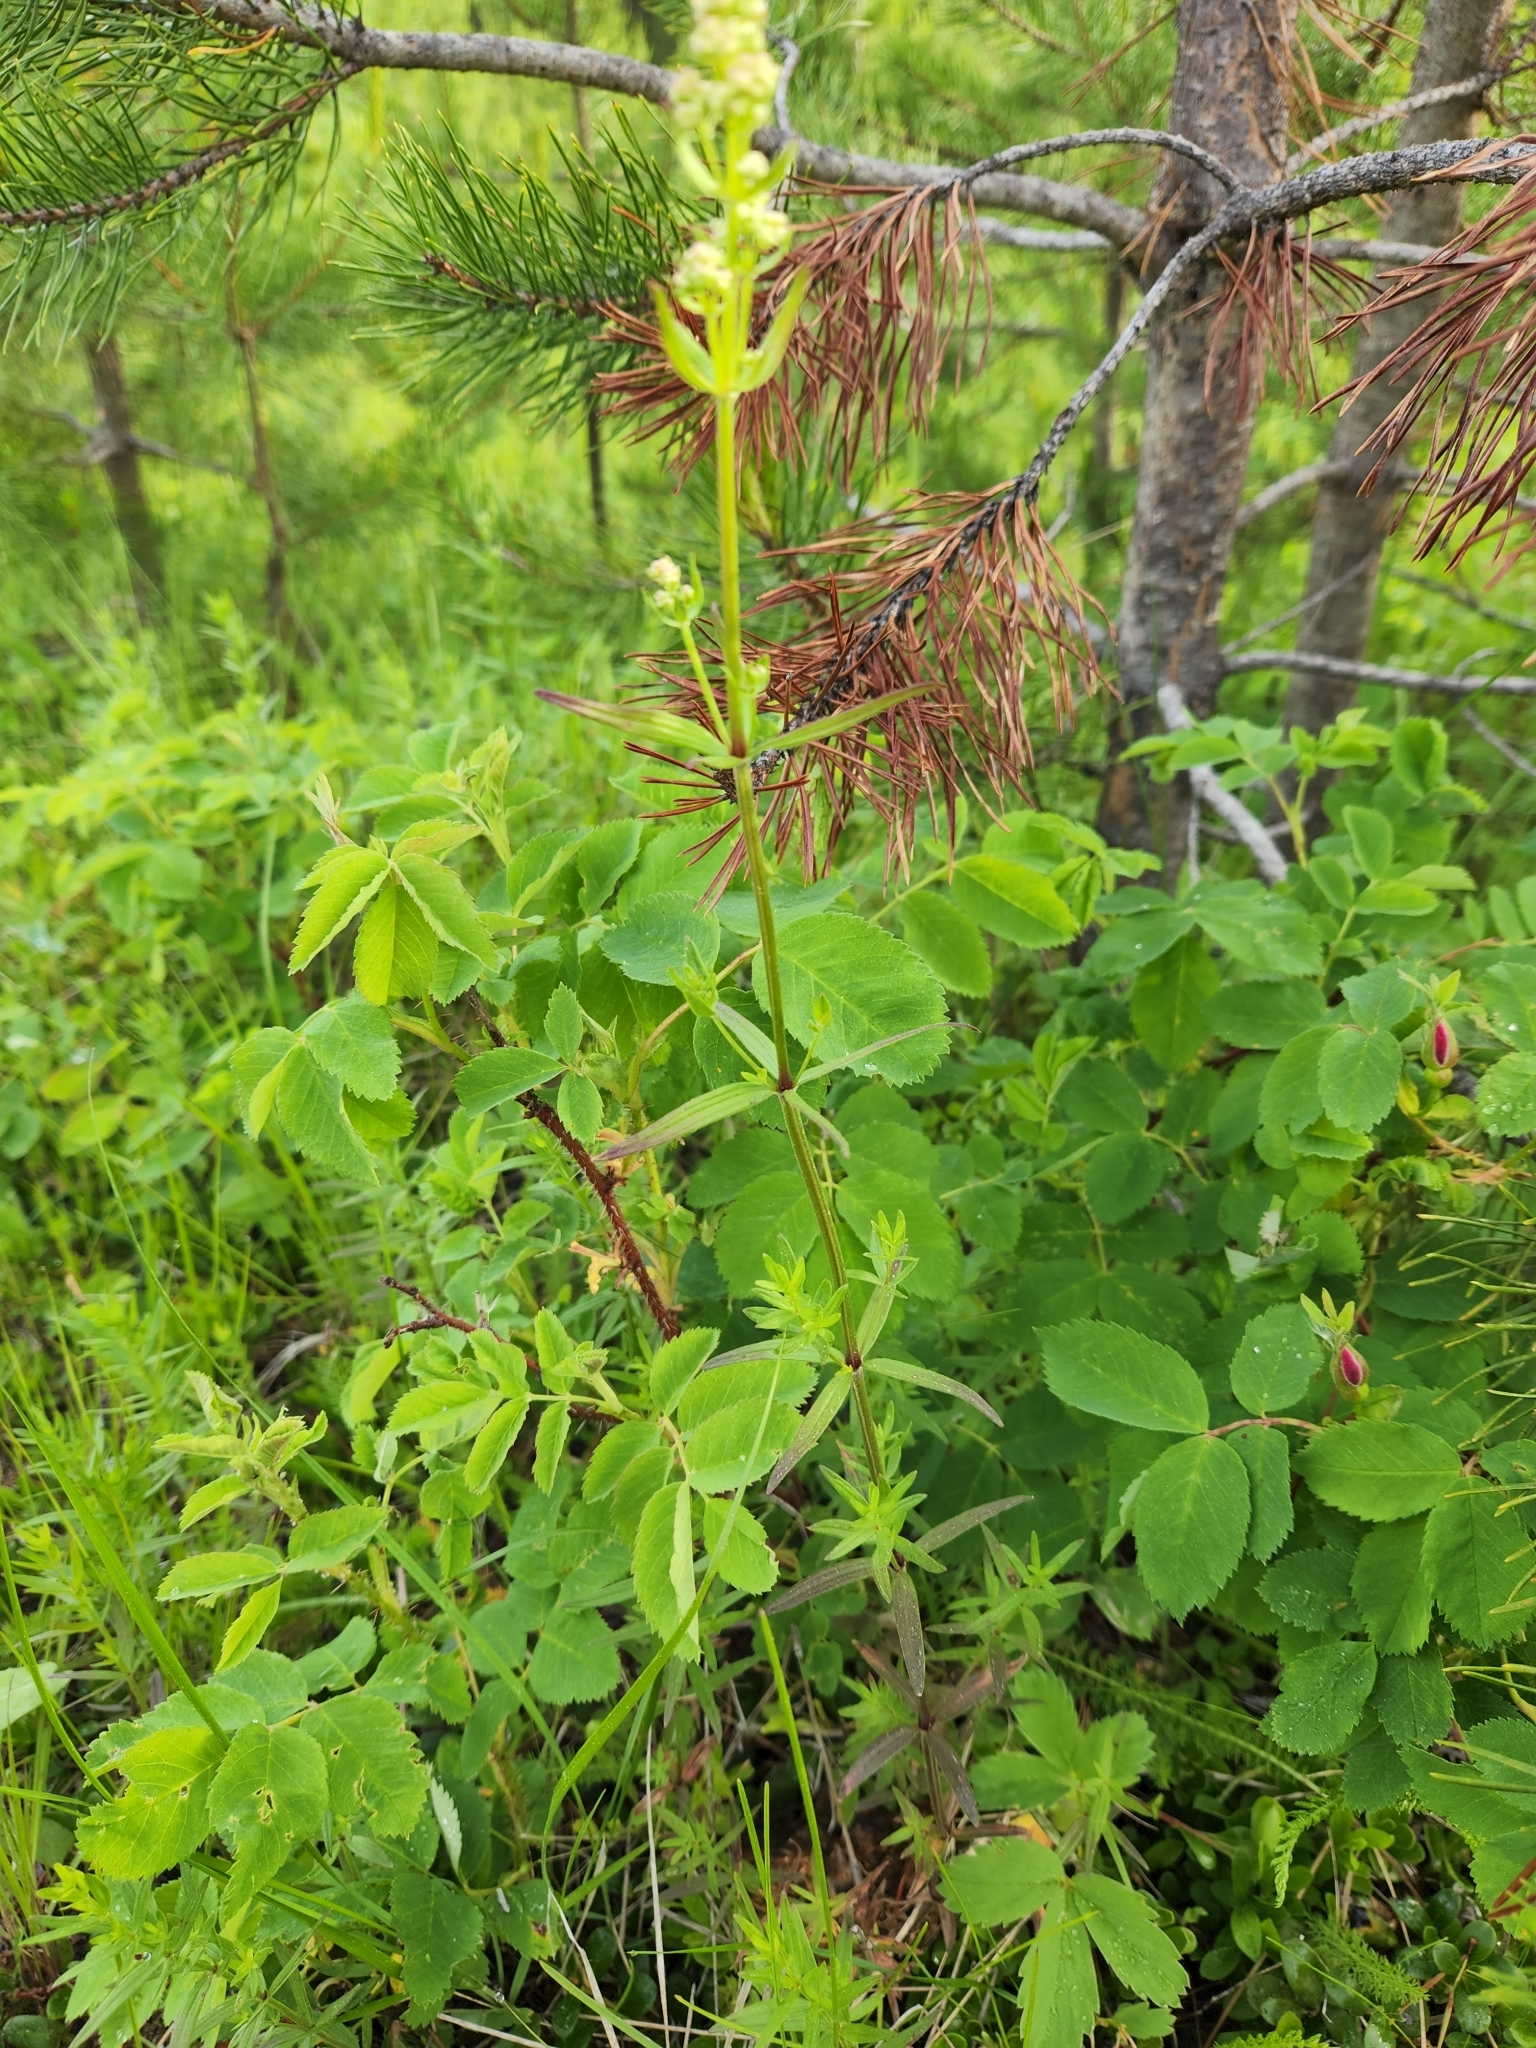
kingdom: Plantae
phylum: Tracheophyta
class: Magnoliopsida
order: Gentianales
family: Rubiaceae
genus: Galium
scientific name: Galium boreale
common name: Northern bedstraw
